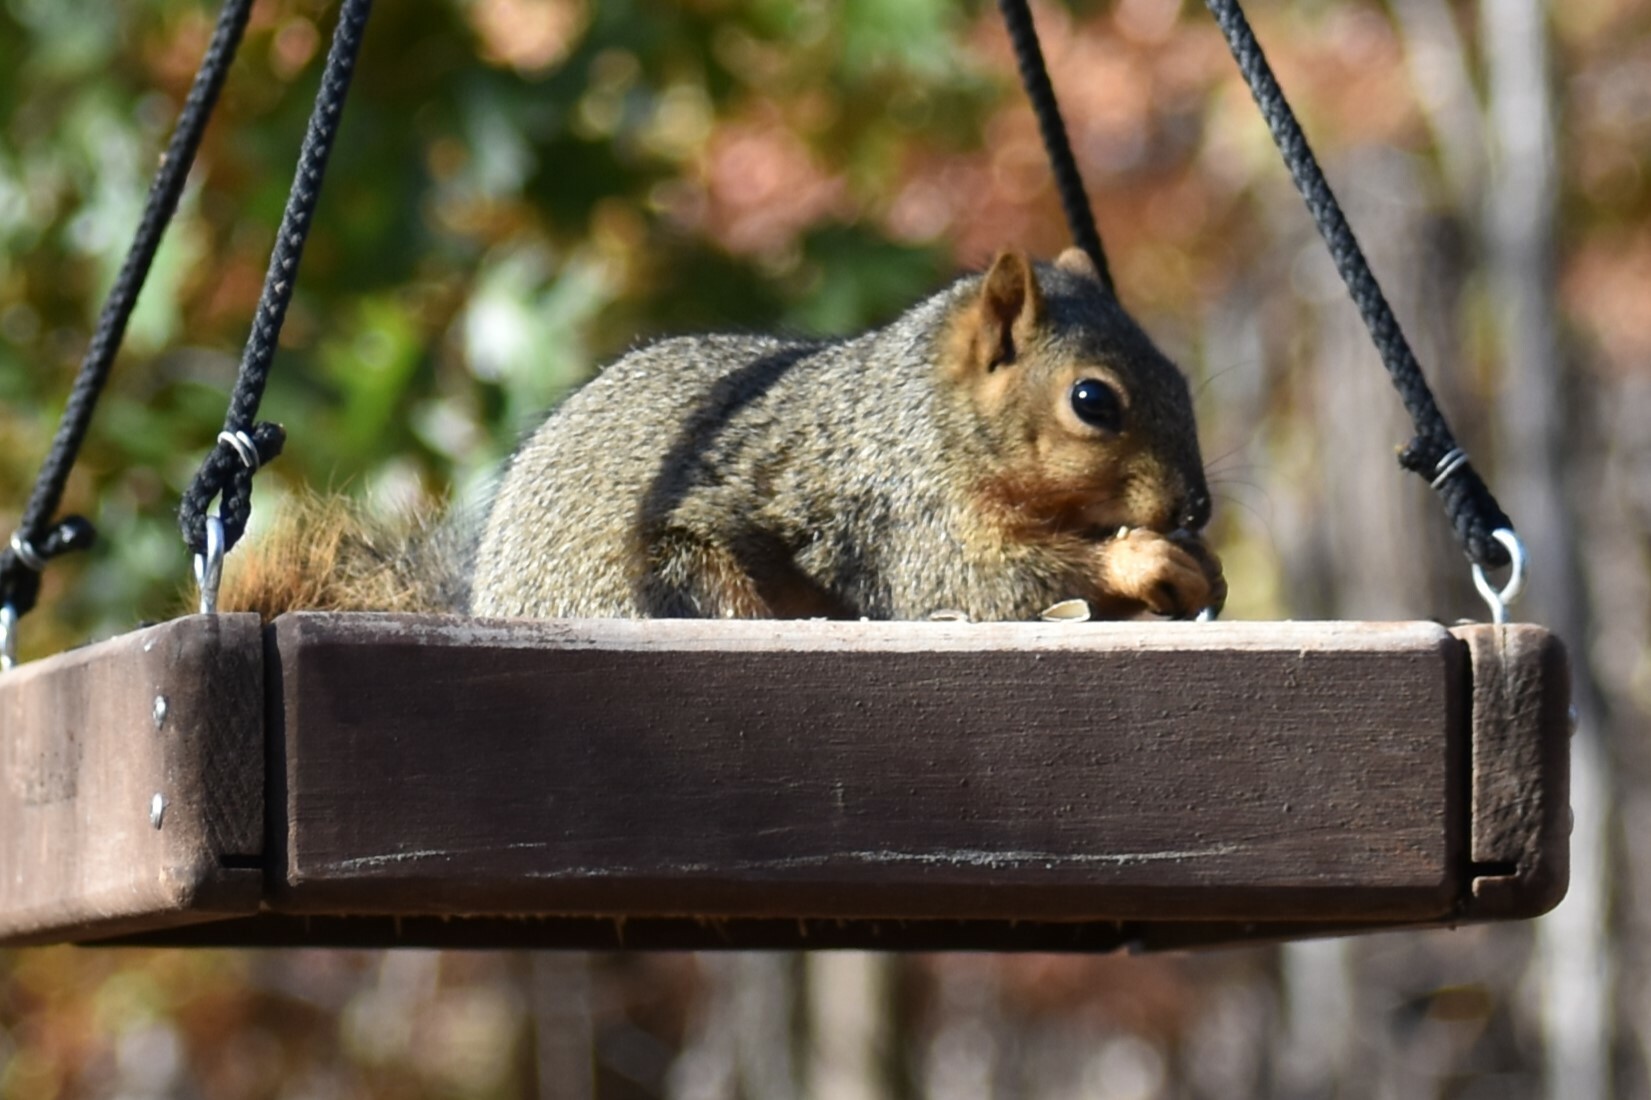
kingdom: Animalia
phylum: Chordata
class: Mammalia
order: Rodentia
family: Sciuridae
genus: Sciurus
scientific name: Sciurus niger
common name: Fox squirrel
